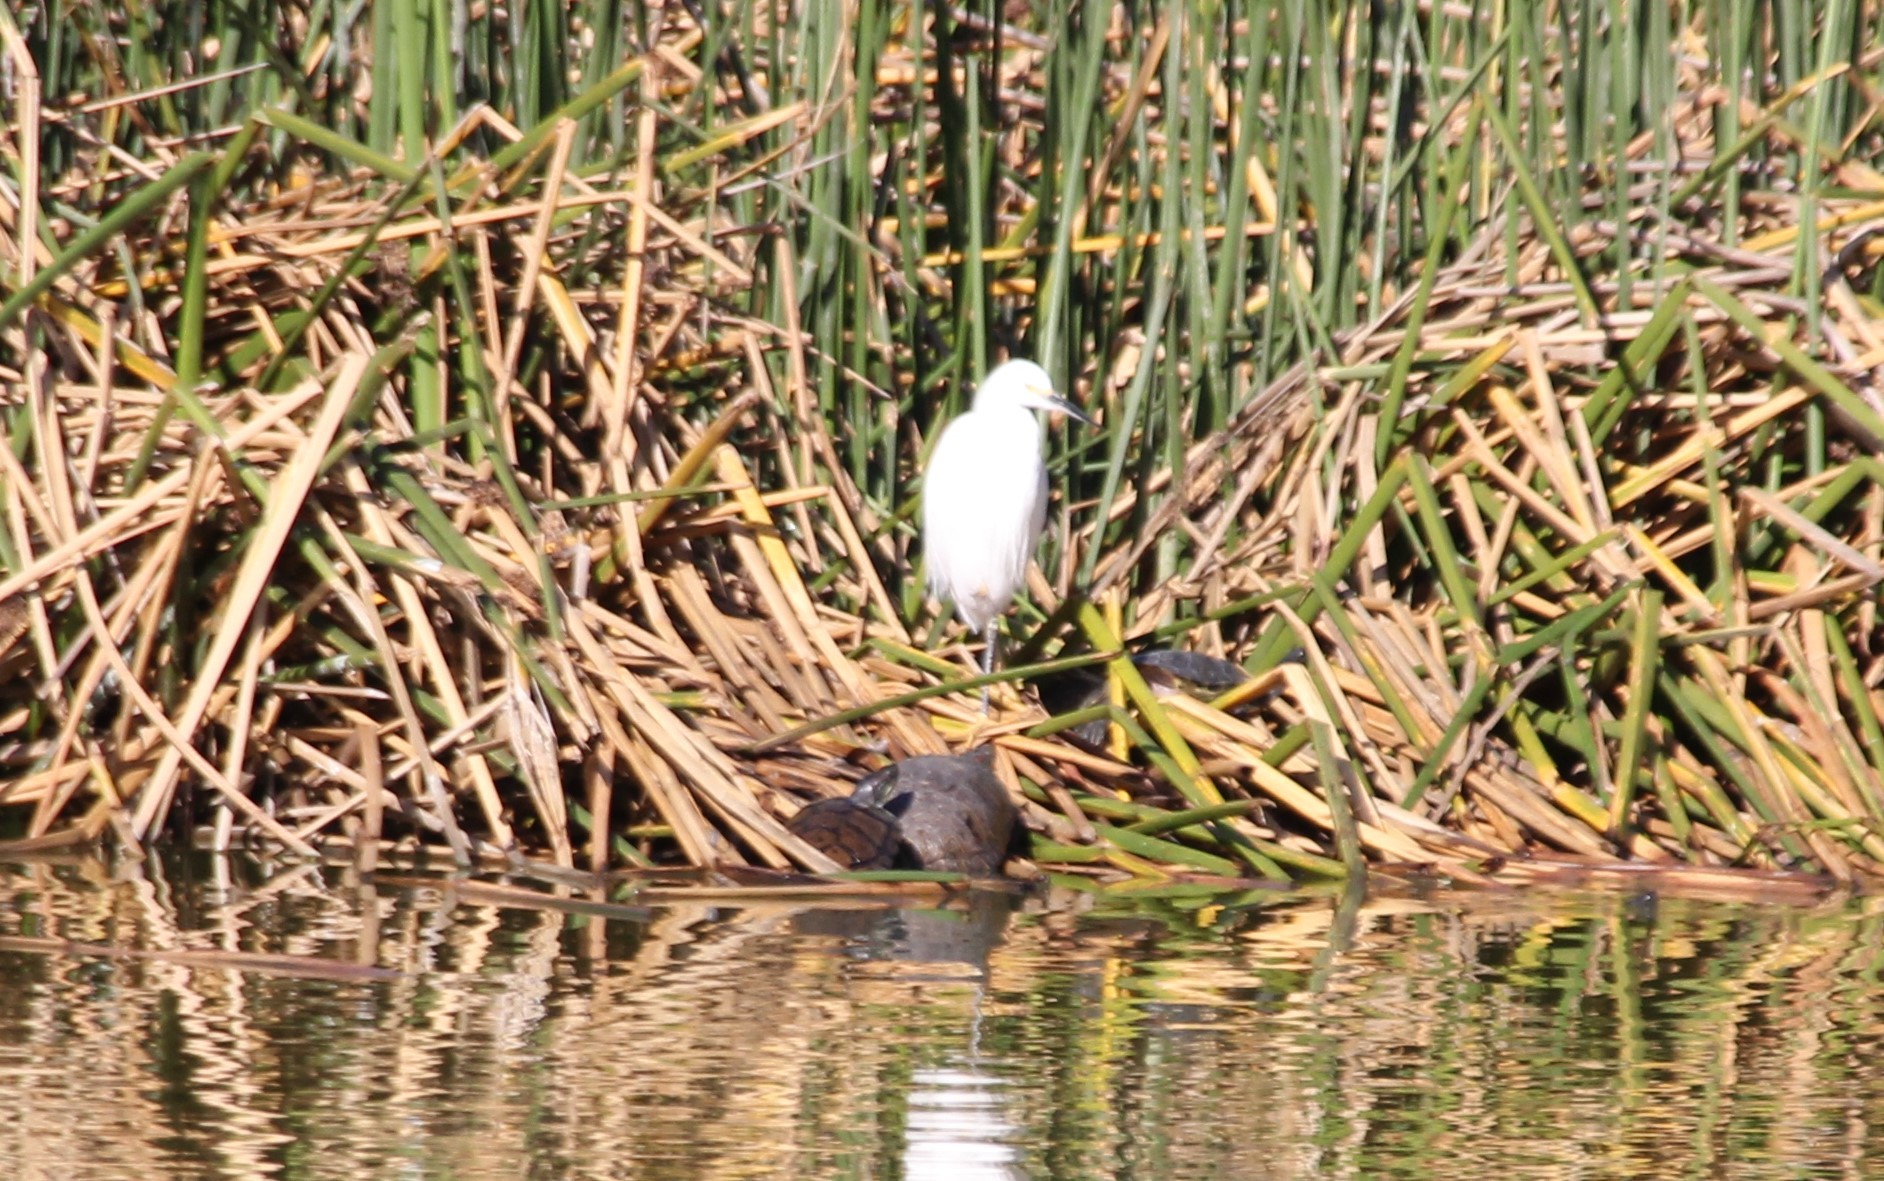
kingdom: Animalia
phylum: Chordata
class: Aves
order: Pelecaniformes
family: Ardeidae
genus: Egretta
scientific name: Egretta thula
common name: Snowy egret
